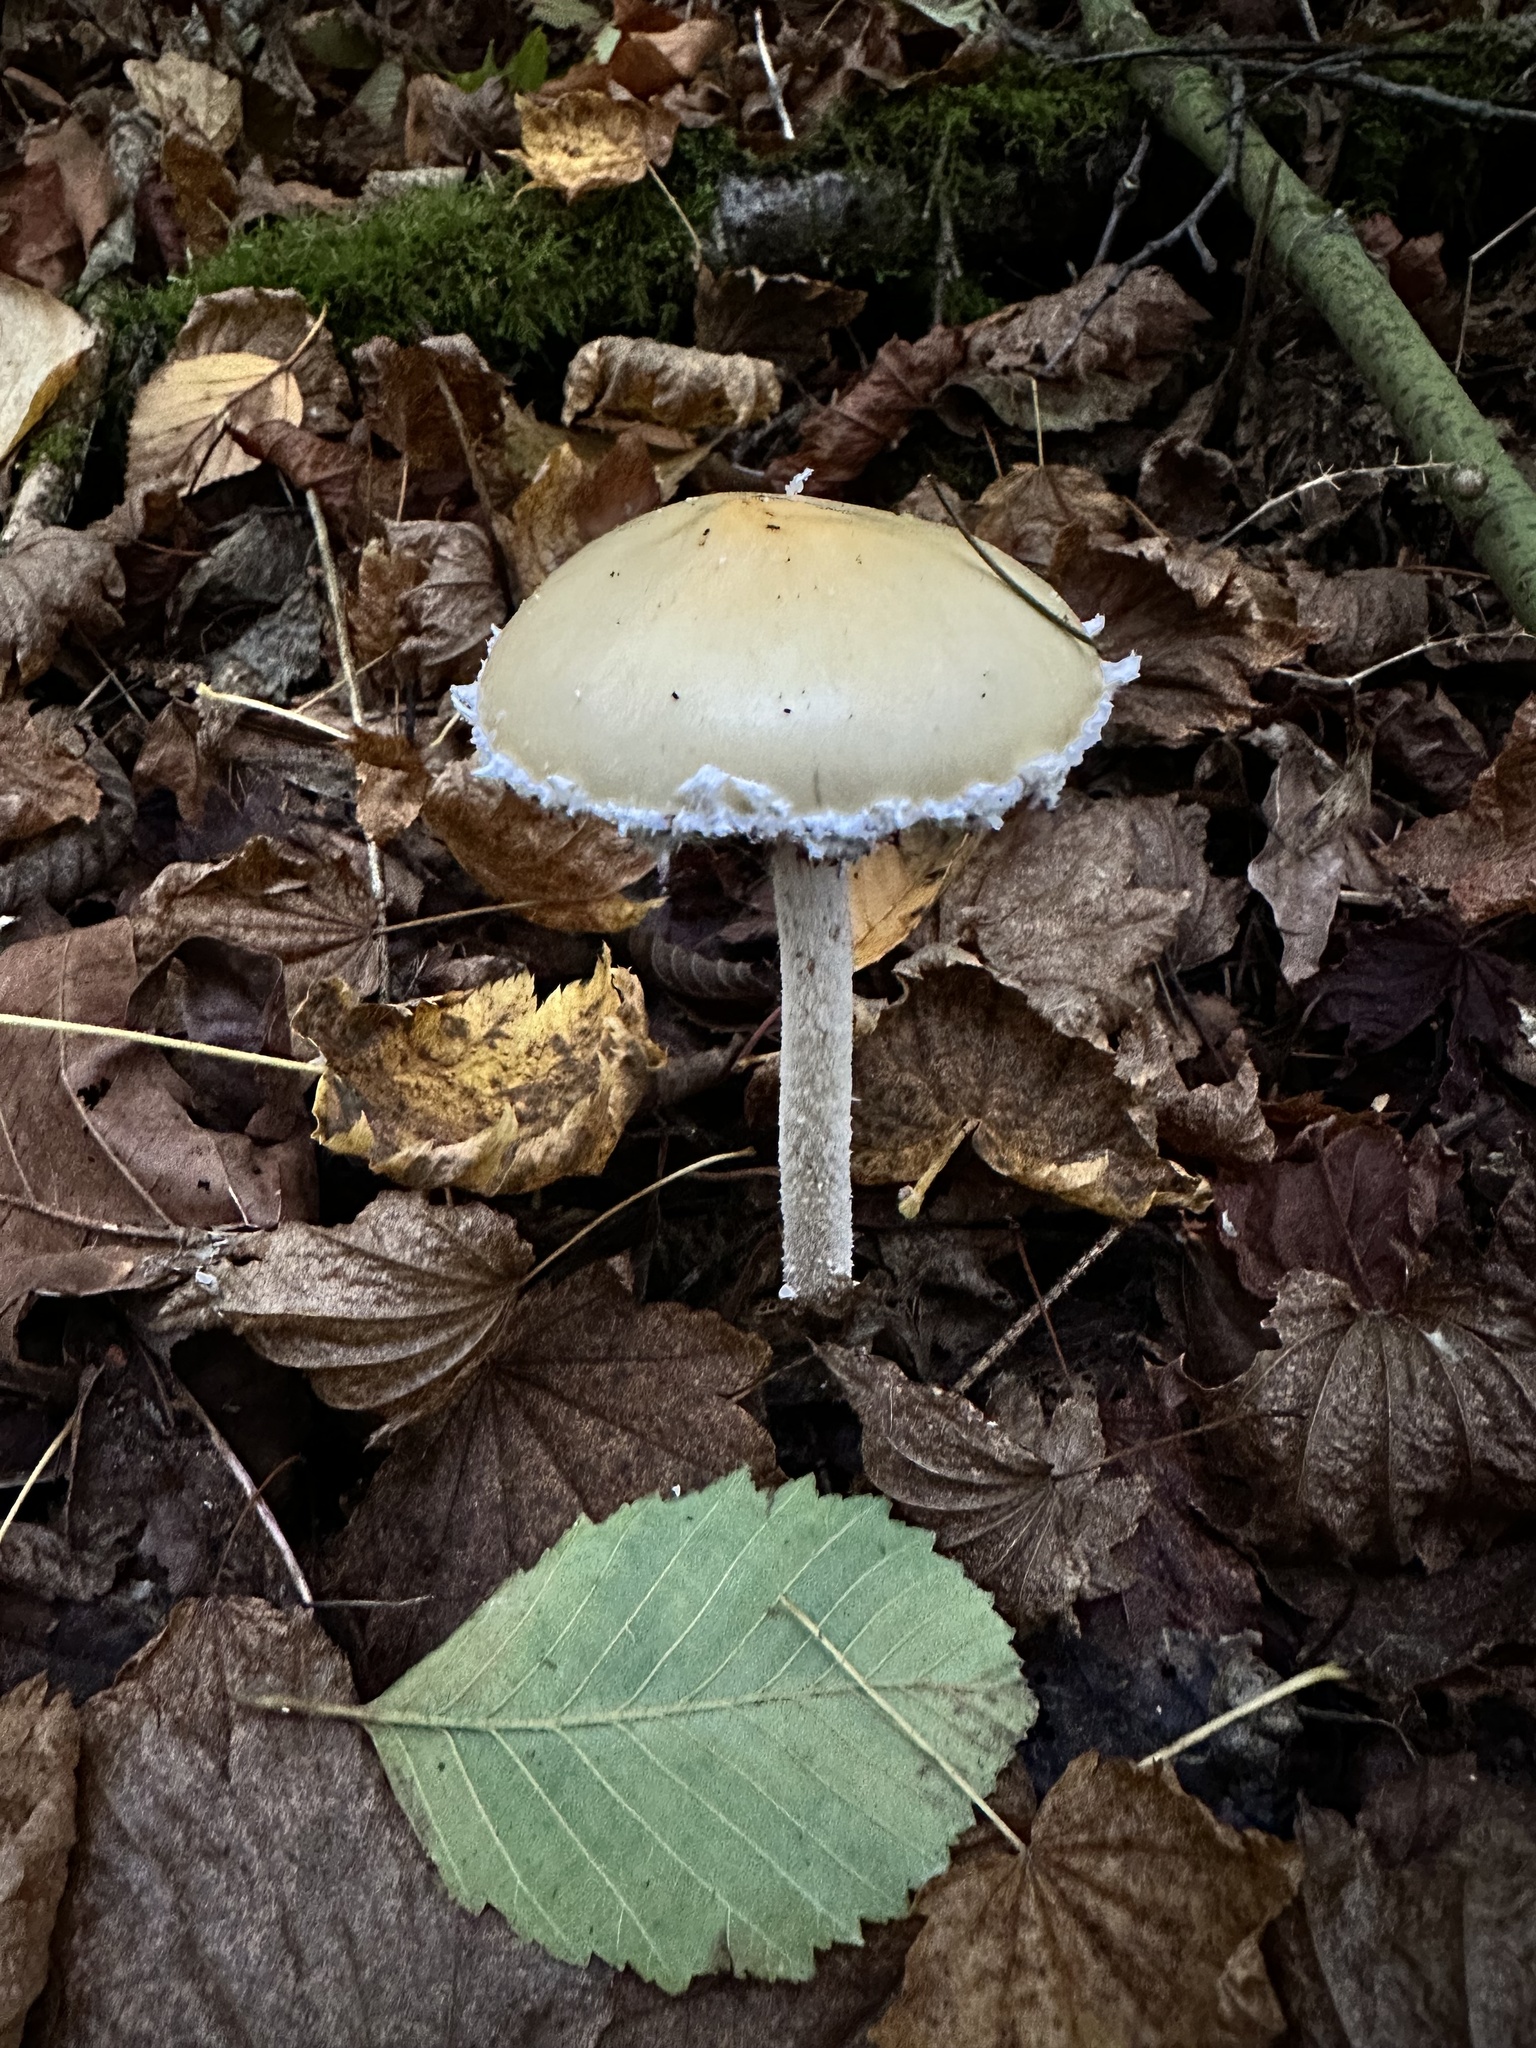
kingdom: Fungi
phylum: Basidiomycota
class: Agaricomycetes
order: Agaricales
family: Strophariaceae
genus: Stropharia
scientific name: Stropharia ambigua
